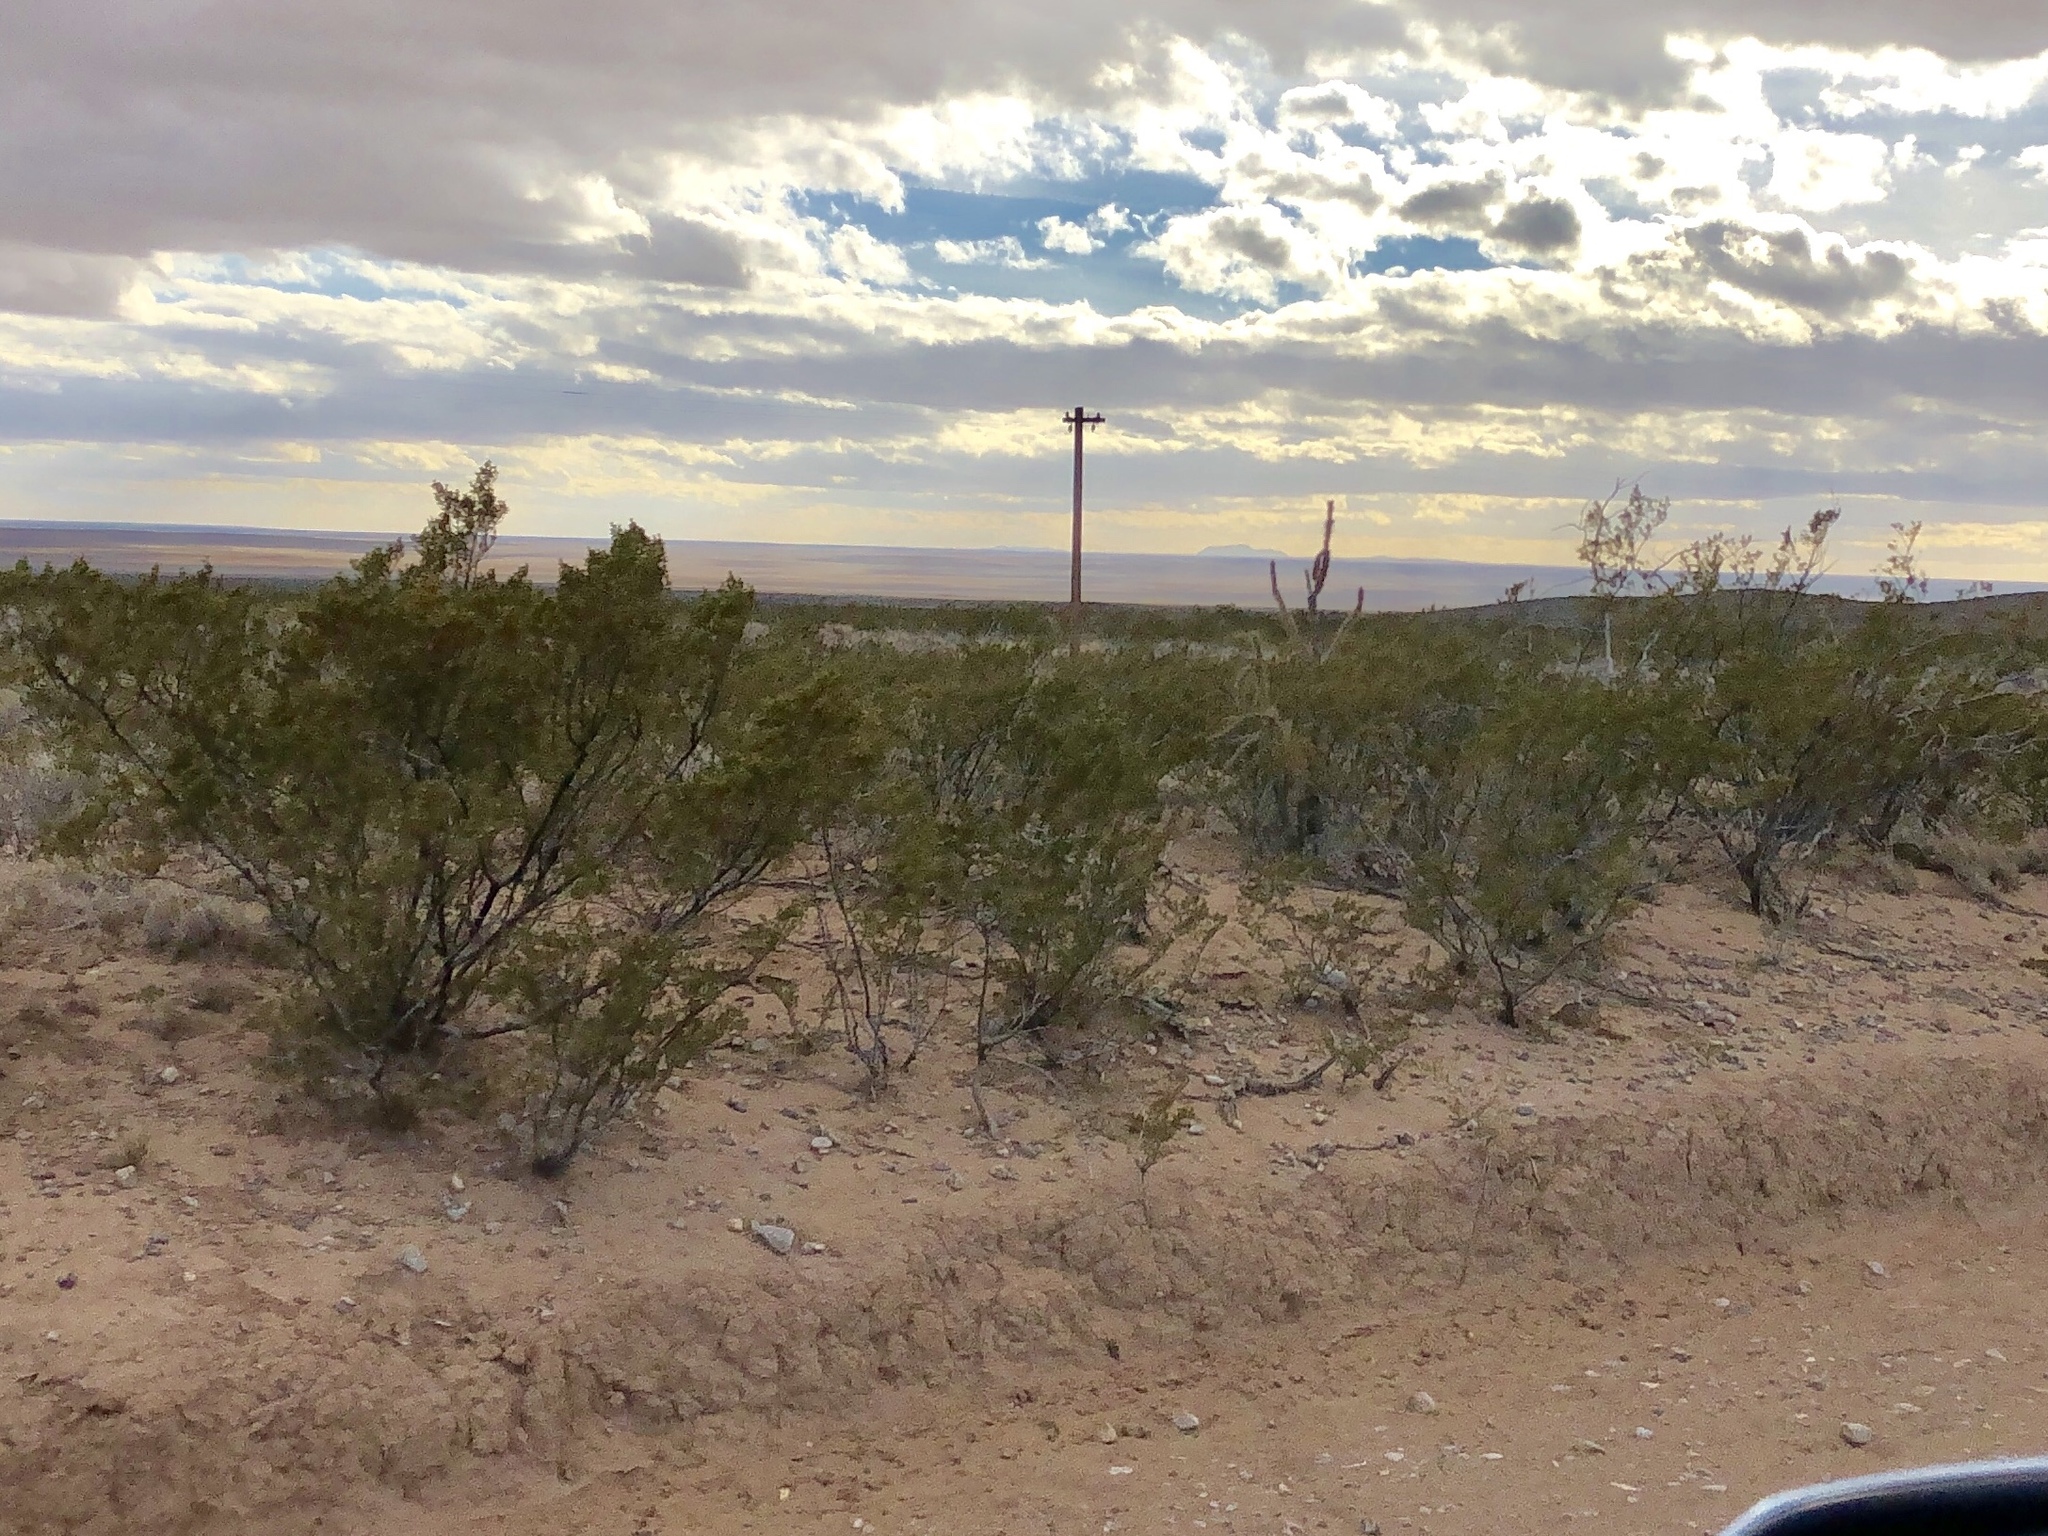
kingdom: Plantae
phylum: Tracheophyta
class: Magnoliopsida
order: Zygophyllales
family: Zygophyllaceae
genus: Larrea
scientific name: Larrea tridentata
